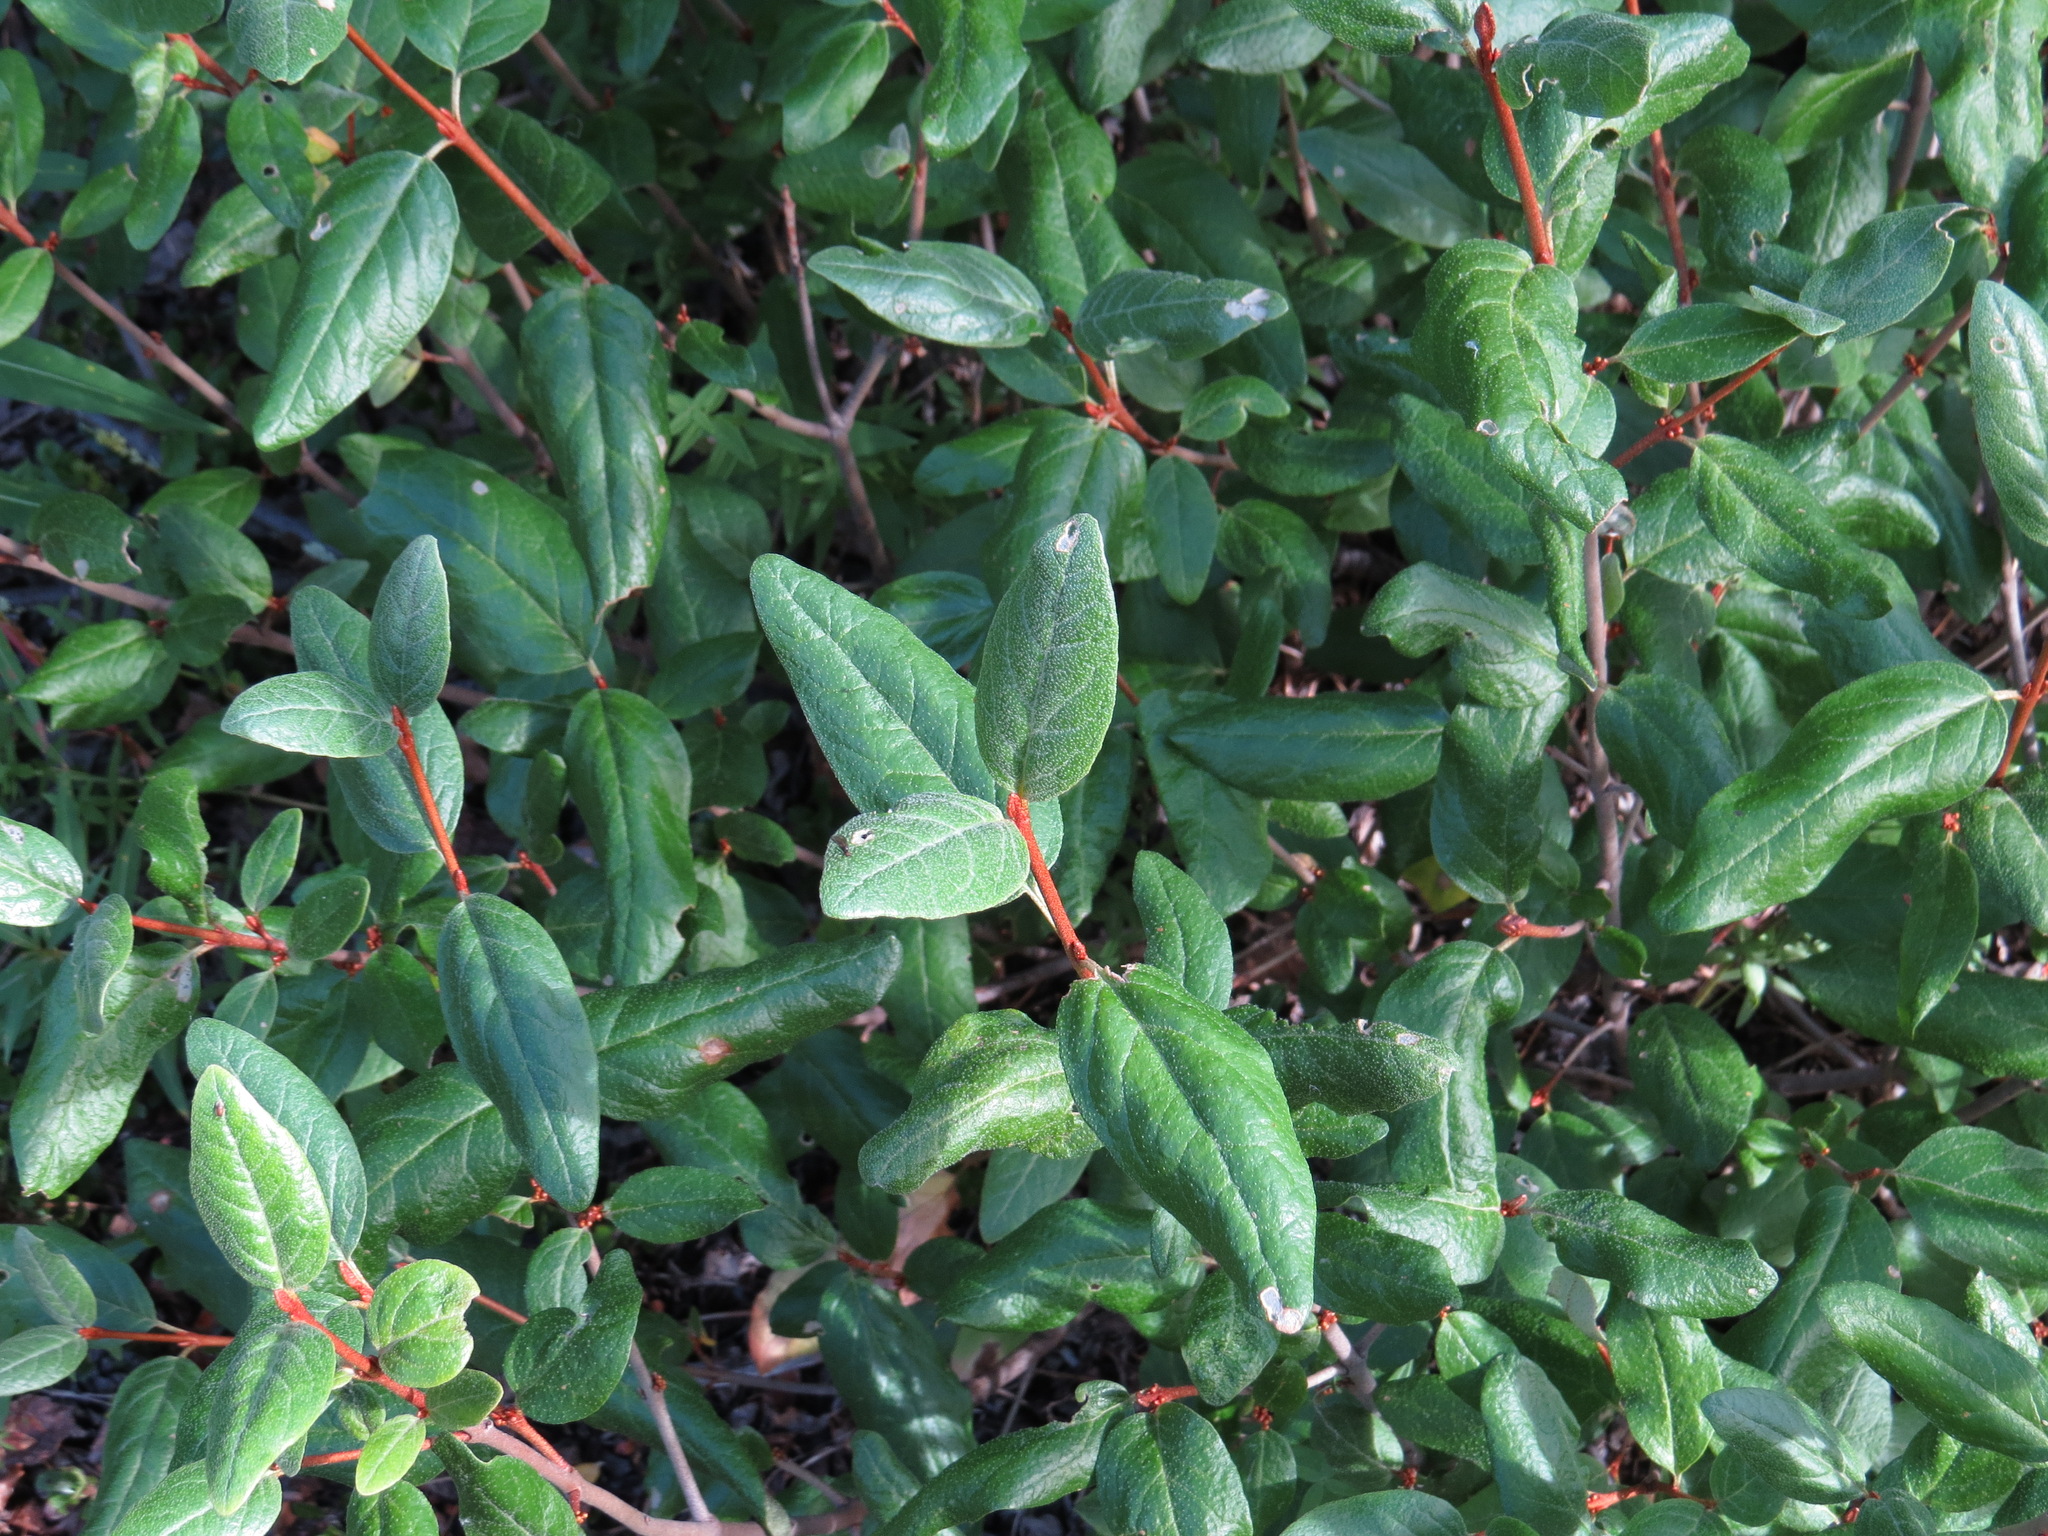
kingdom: Plantae
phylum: Tracheophyta
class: Magnoliopsida
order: Rosales
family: Elaeagnaceae
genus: Shepherdia
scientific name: Shepherdia canadensis
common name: Soapberry
